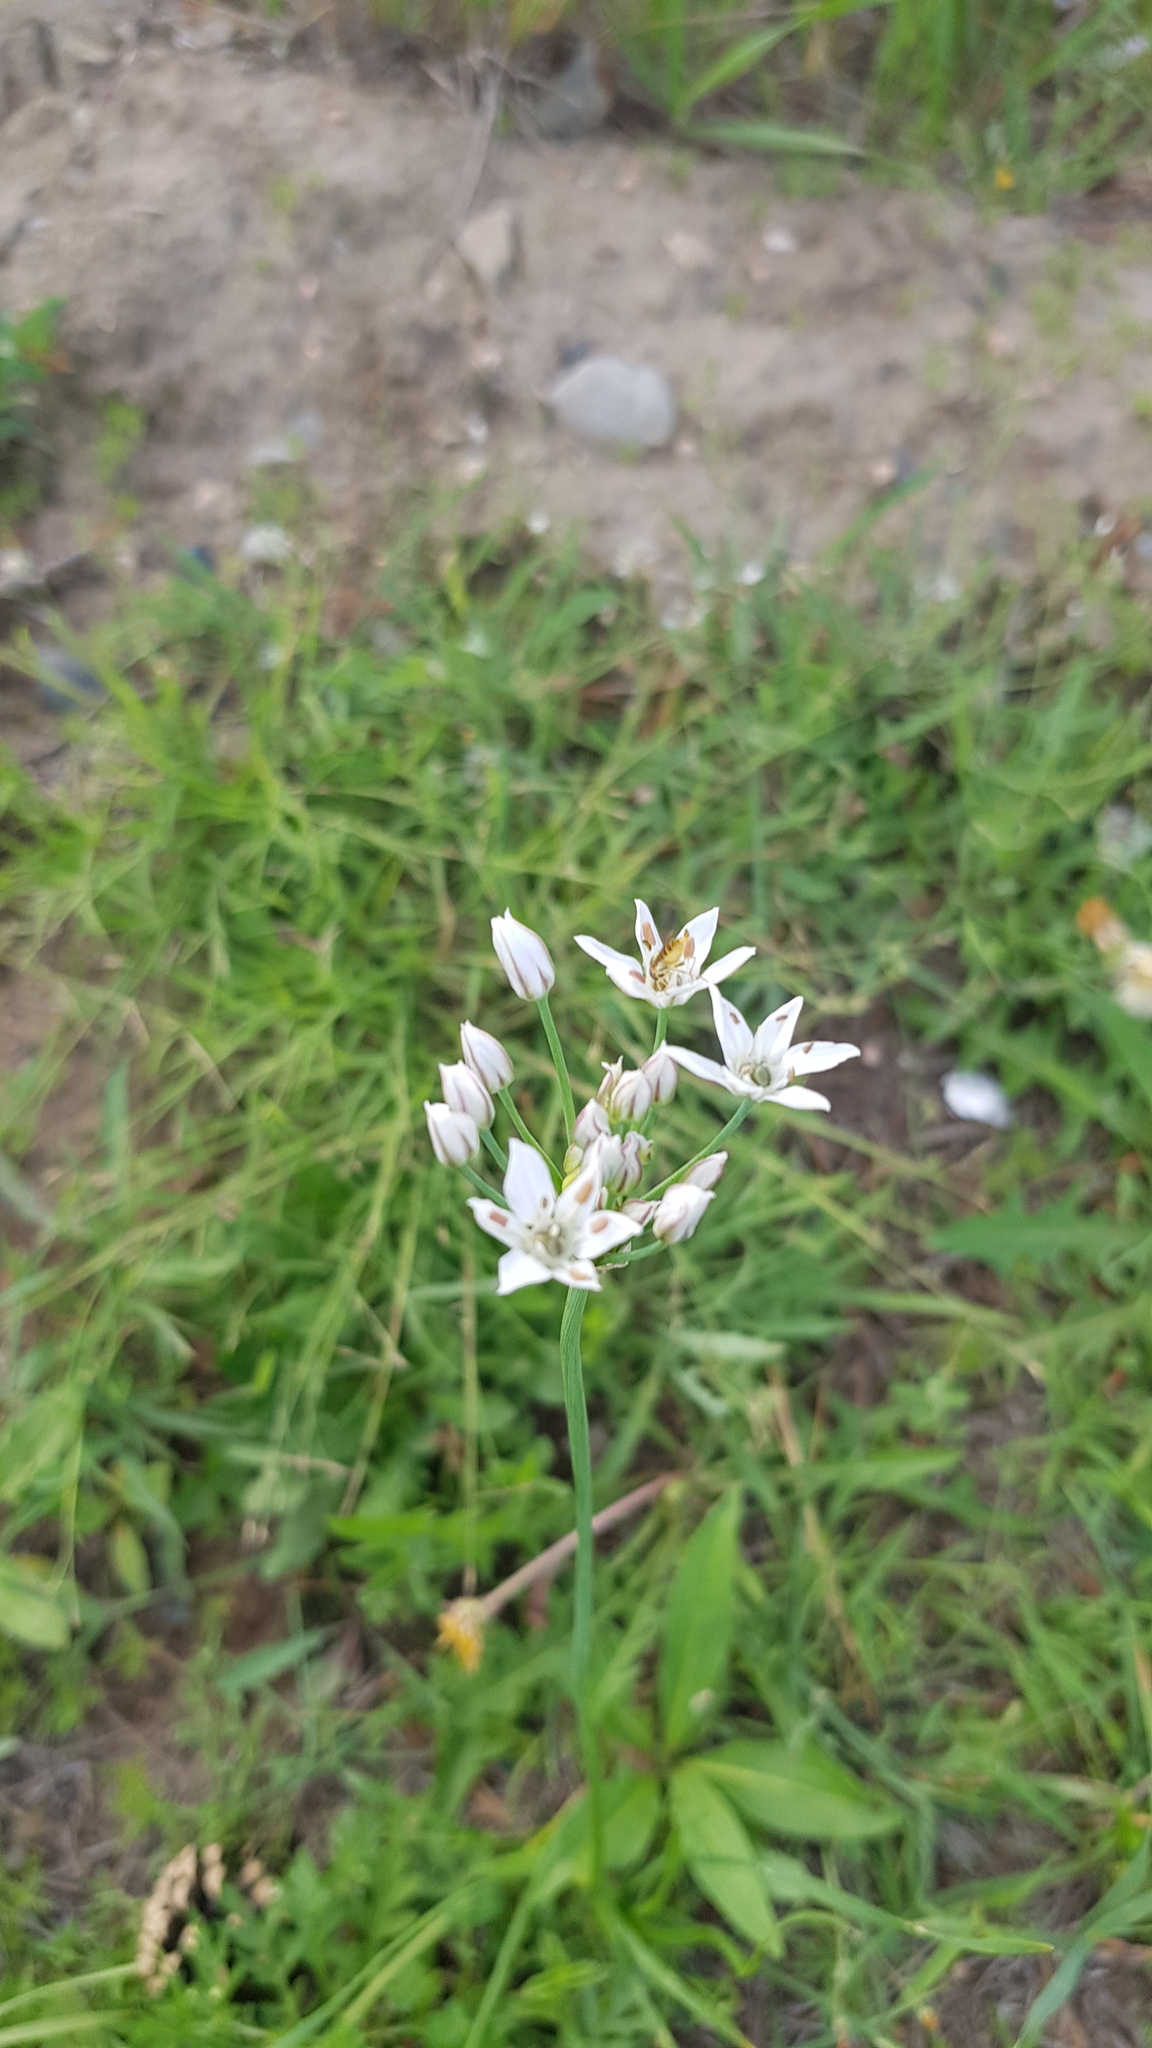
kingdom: Plantae
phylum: Tracheophyta
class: Liliopsida
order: Asparagales
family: Amaryllidaceae
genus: Allium
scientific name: Allium ramosum
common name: Fragrant garlic
